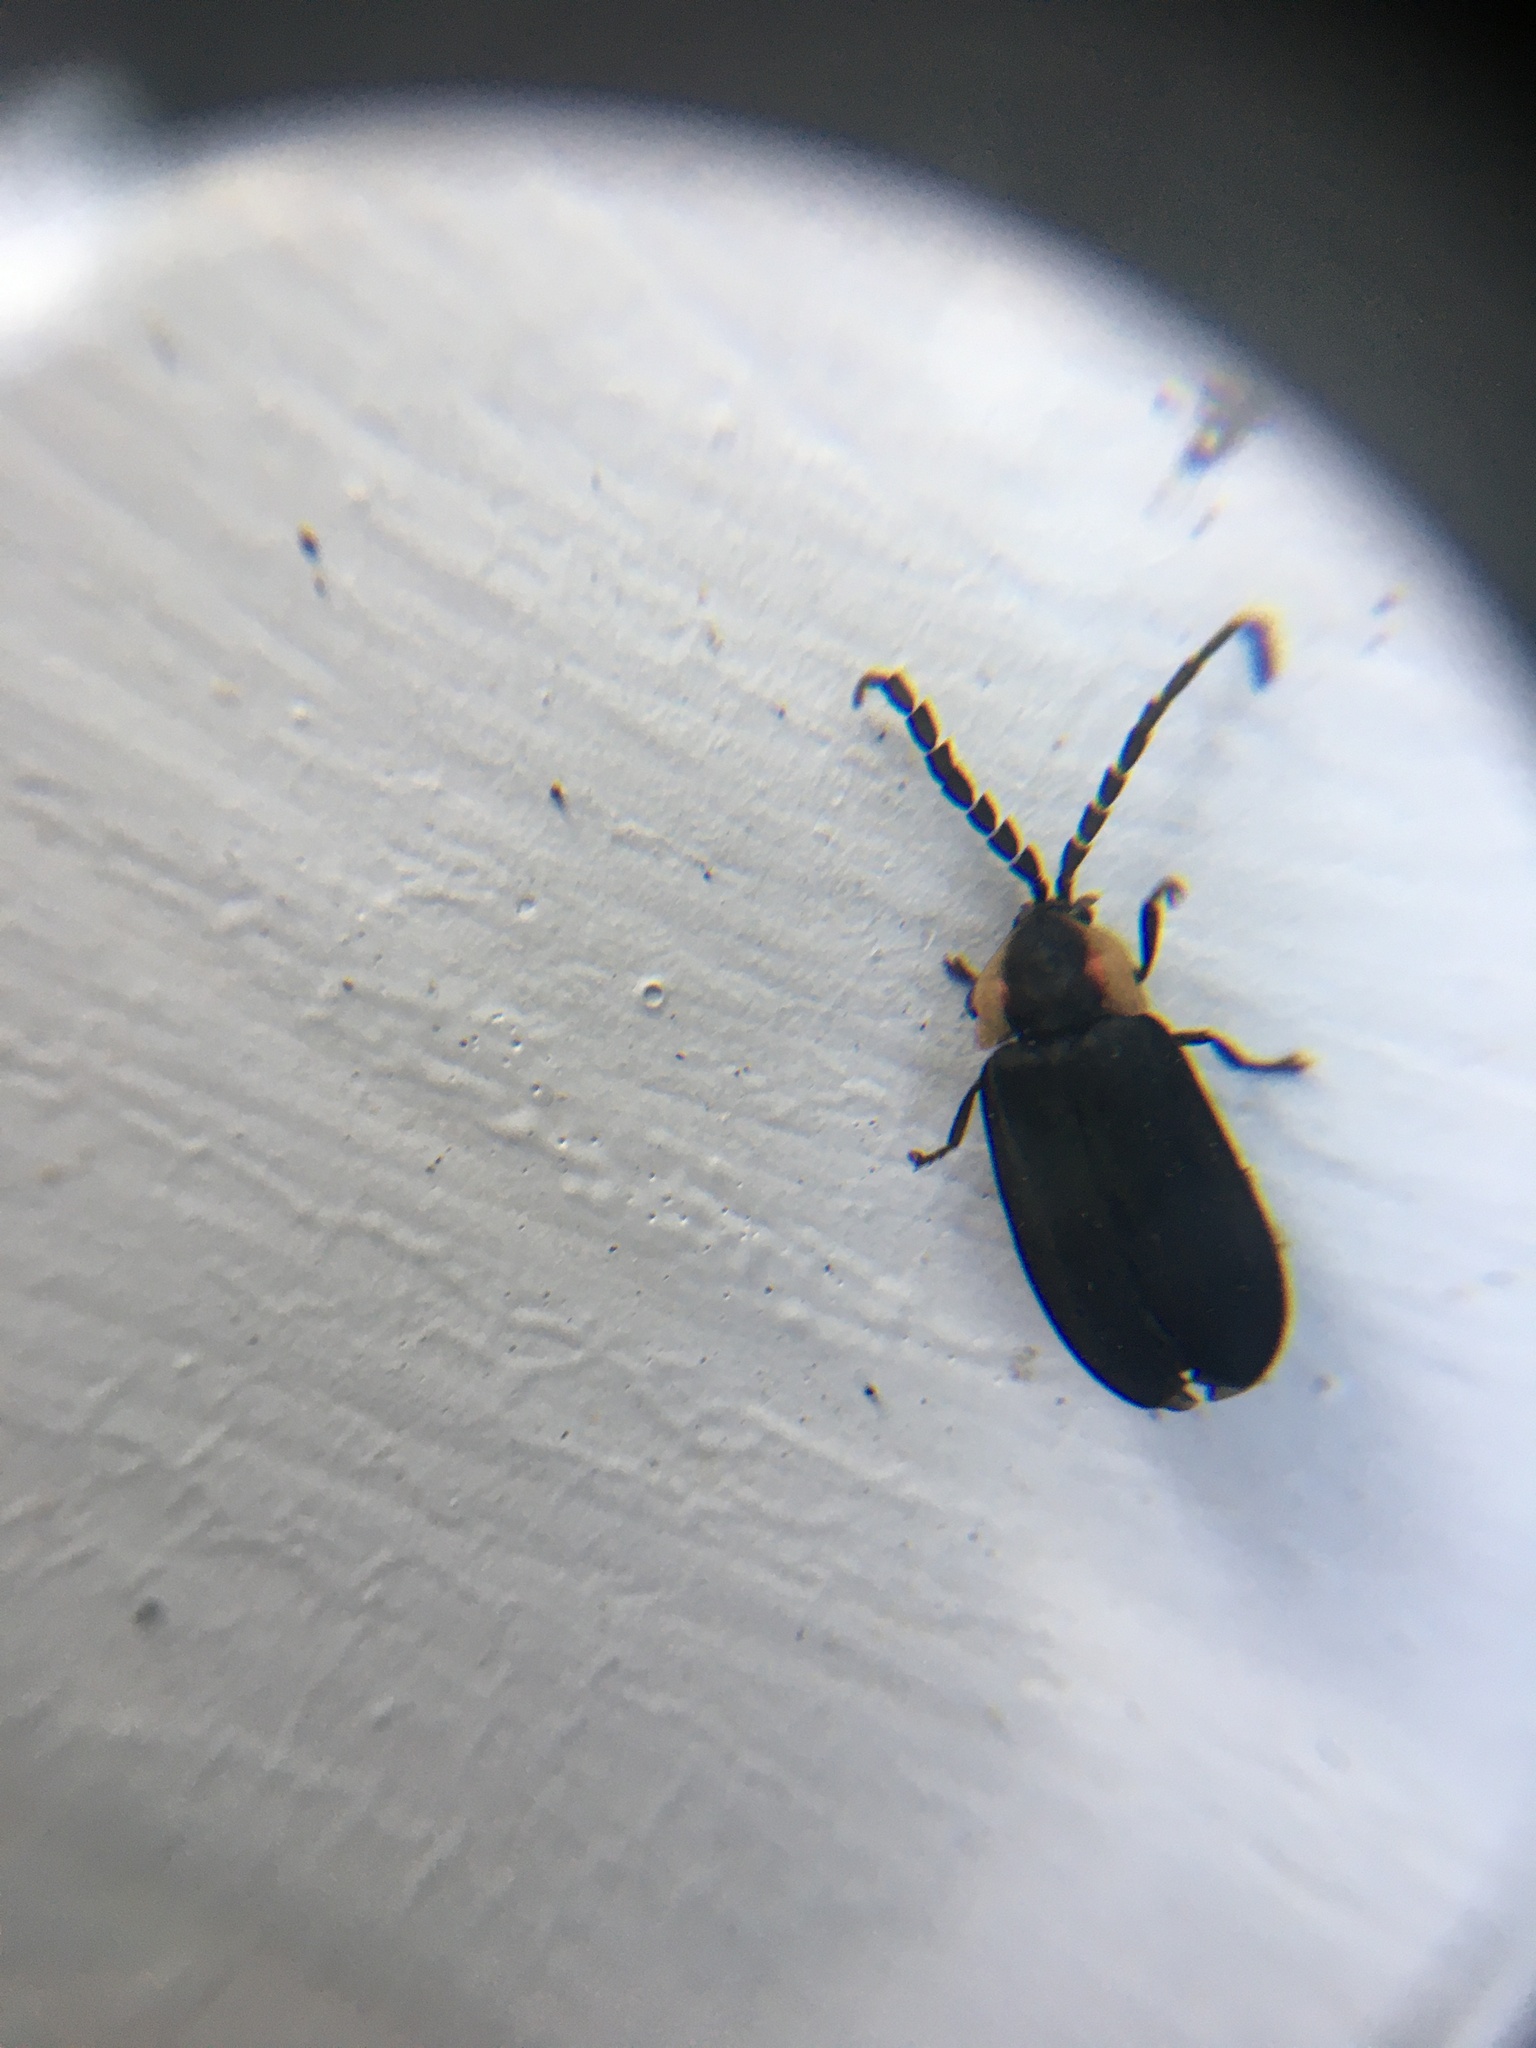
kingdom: Animalia
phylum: Arthropoda
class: Insecta
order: Coleoptera
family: Lampyridae
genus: Lucidota
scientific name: Lucidota atra
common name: Black firefly
